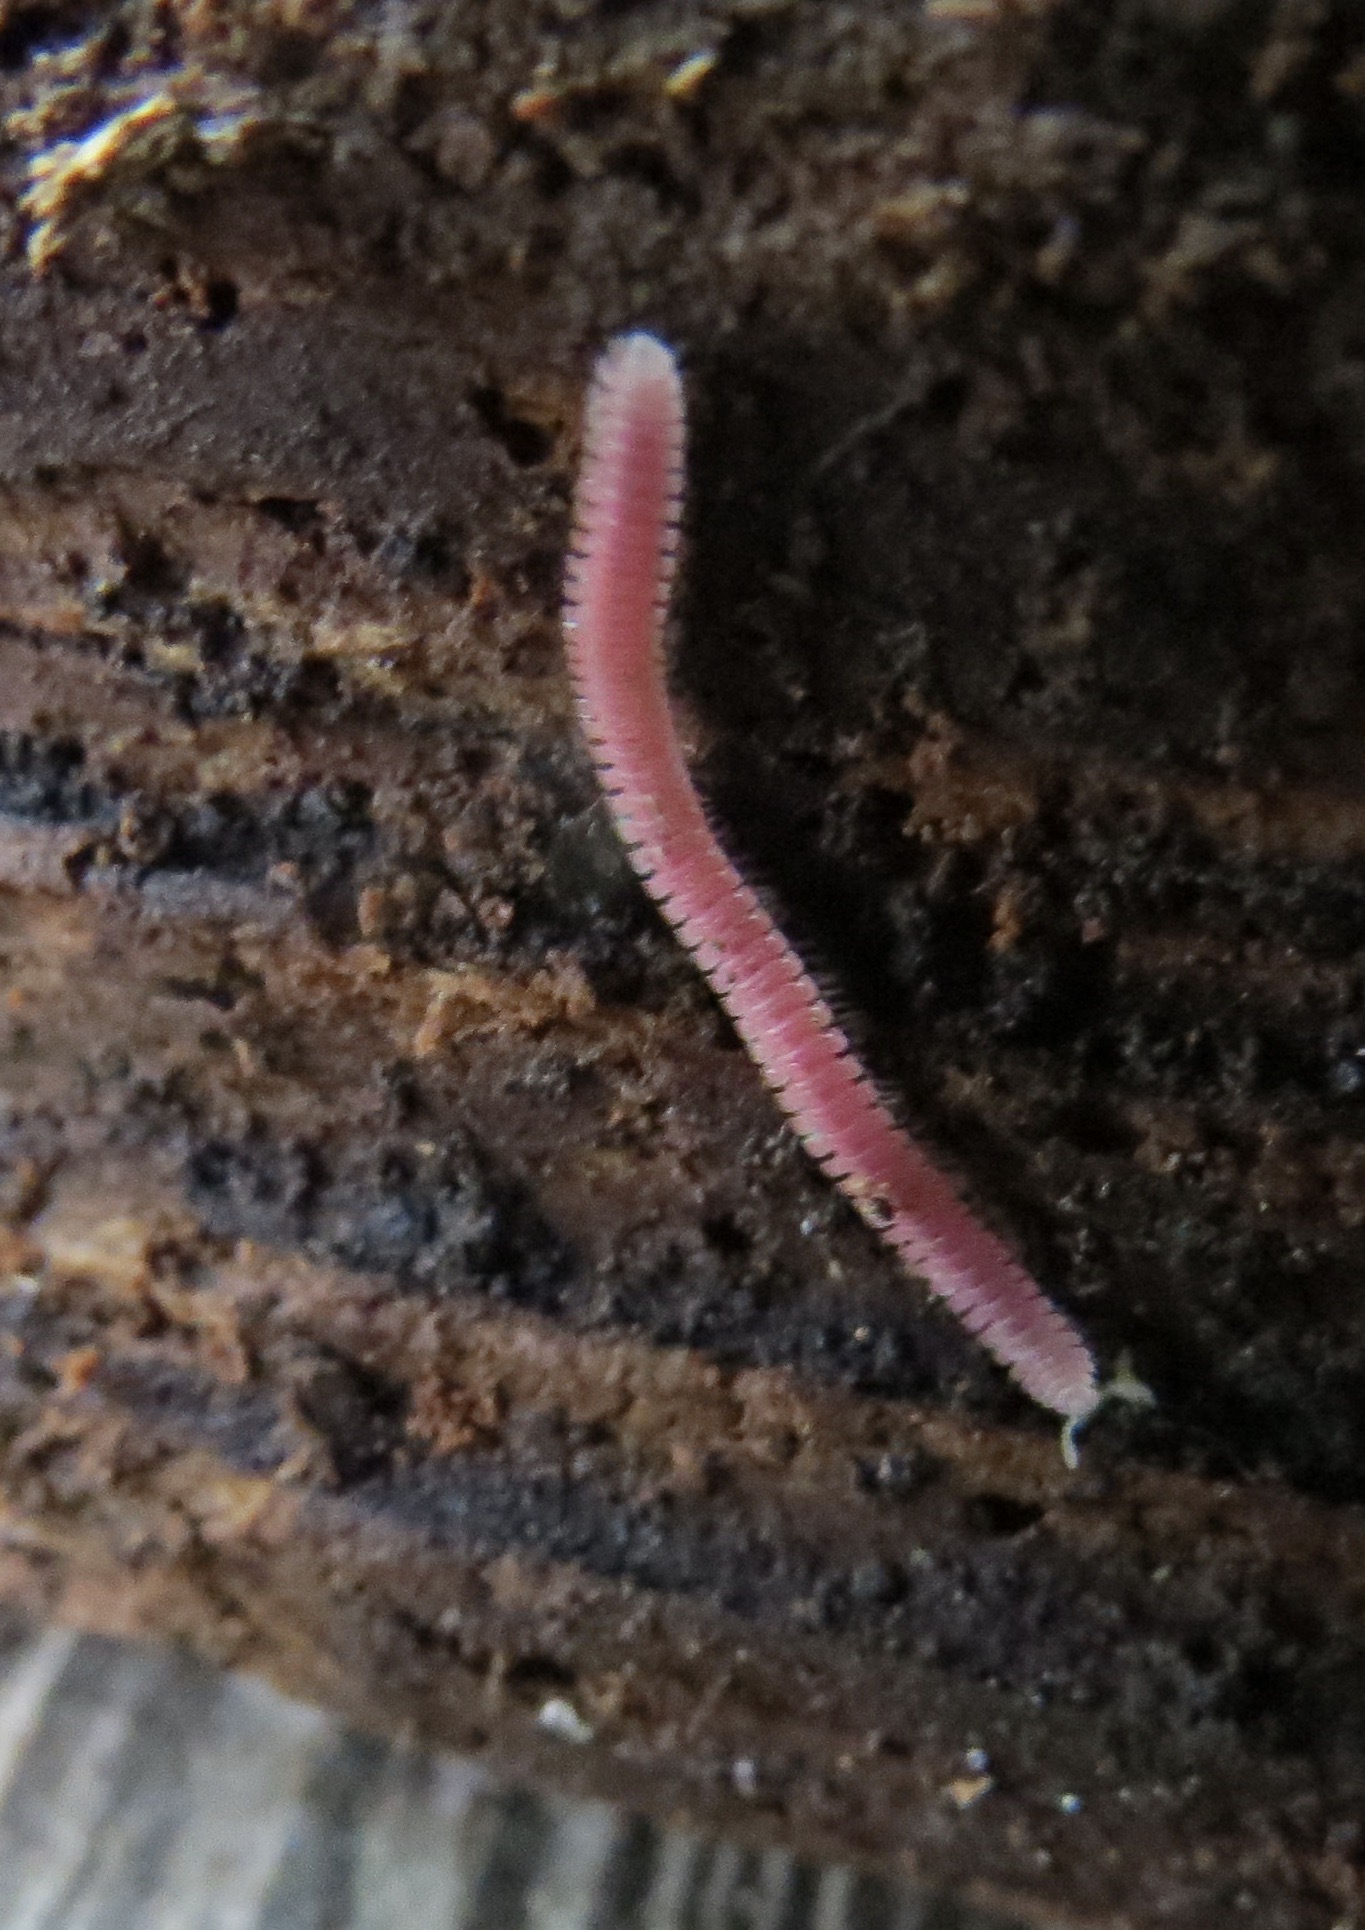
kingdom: Animalia
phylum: Arthropoda
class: Diplopoda
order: Platydesmida
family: Andrognathidae
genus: Gosodesmus
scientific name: Gosodesmus claremontus
